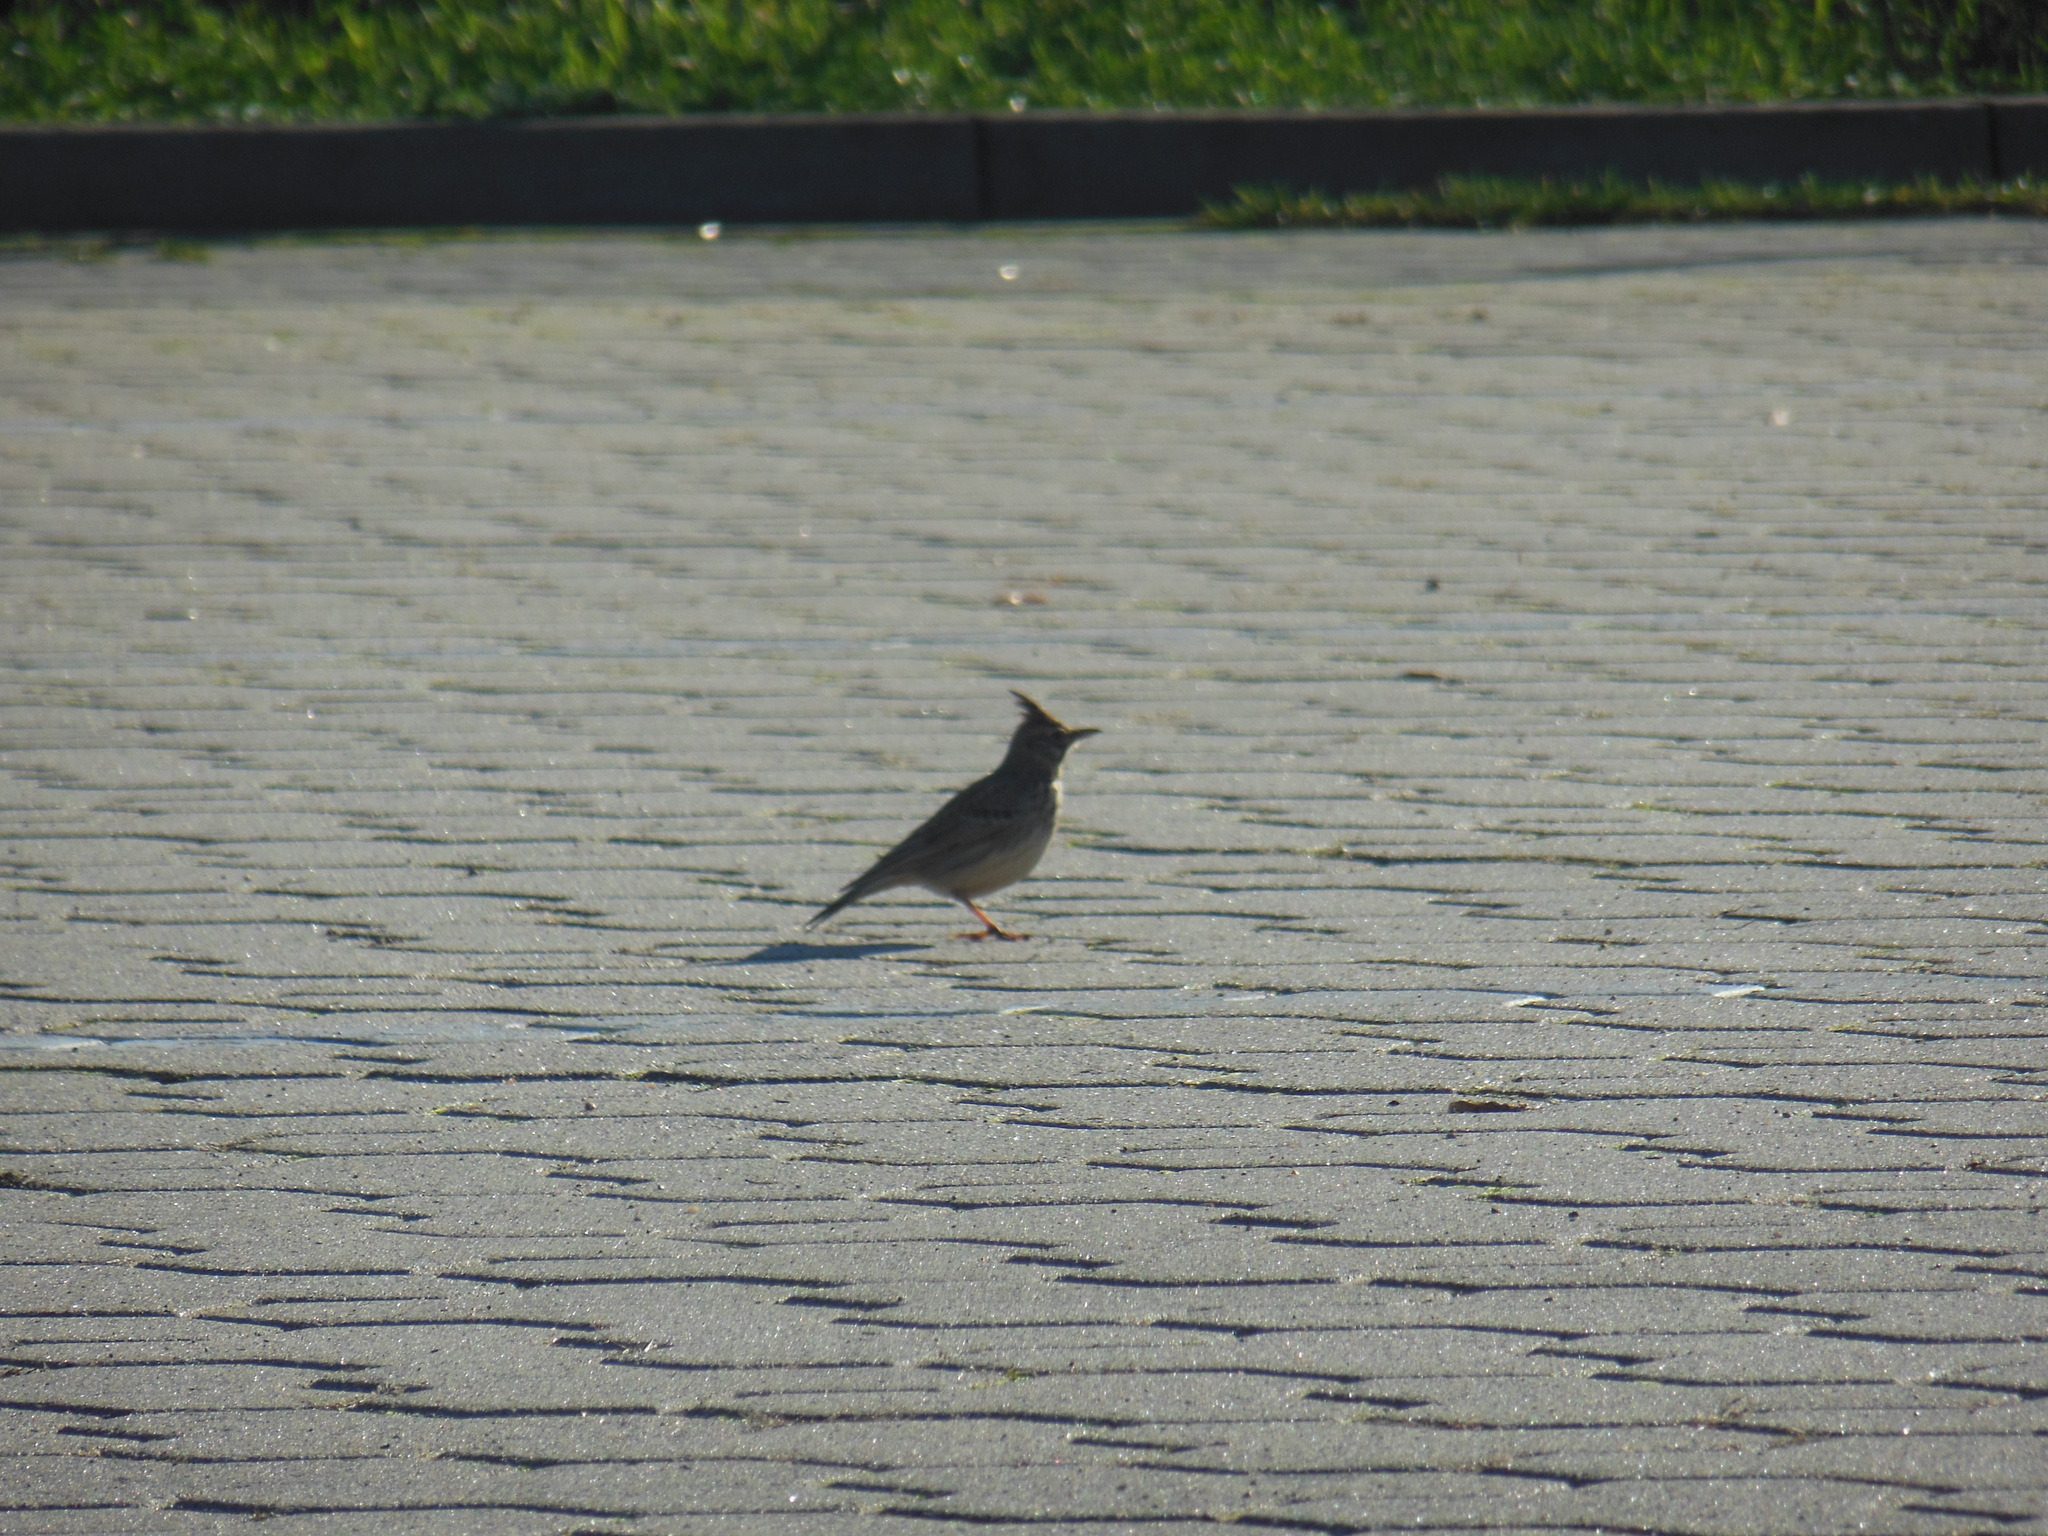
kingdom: Animalia
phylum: Chordata
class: Aves
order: Passeriformes
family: Alaudidae
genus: Galerida
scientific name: Galerida cristata
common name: Crested lark
